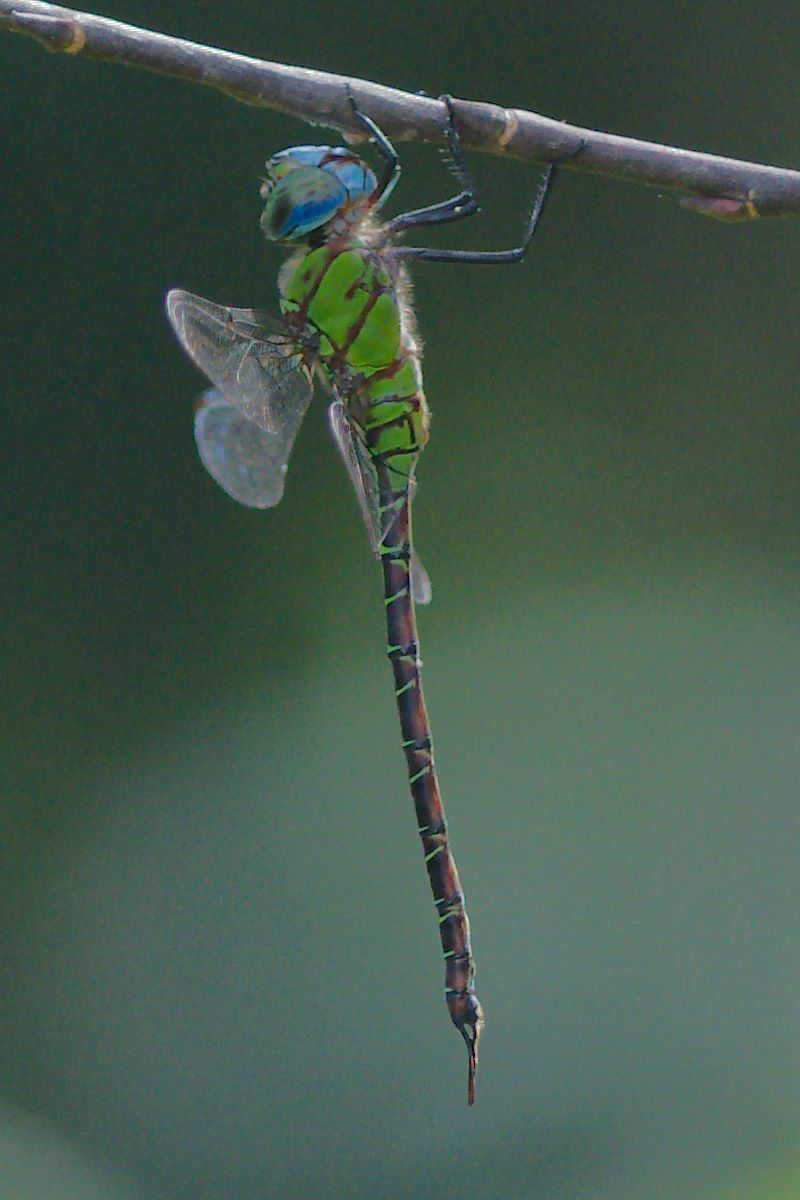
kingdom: Animalia
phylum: Arthropoda
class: Insecta
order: Odonata
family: Aeshnidae
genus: Coryphaeschna
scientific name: Coryphaeschna adnexa
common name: Blue-faced darner
